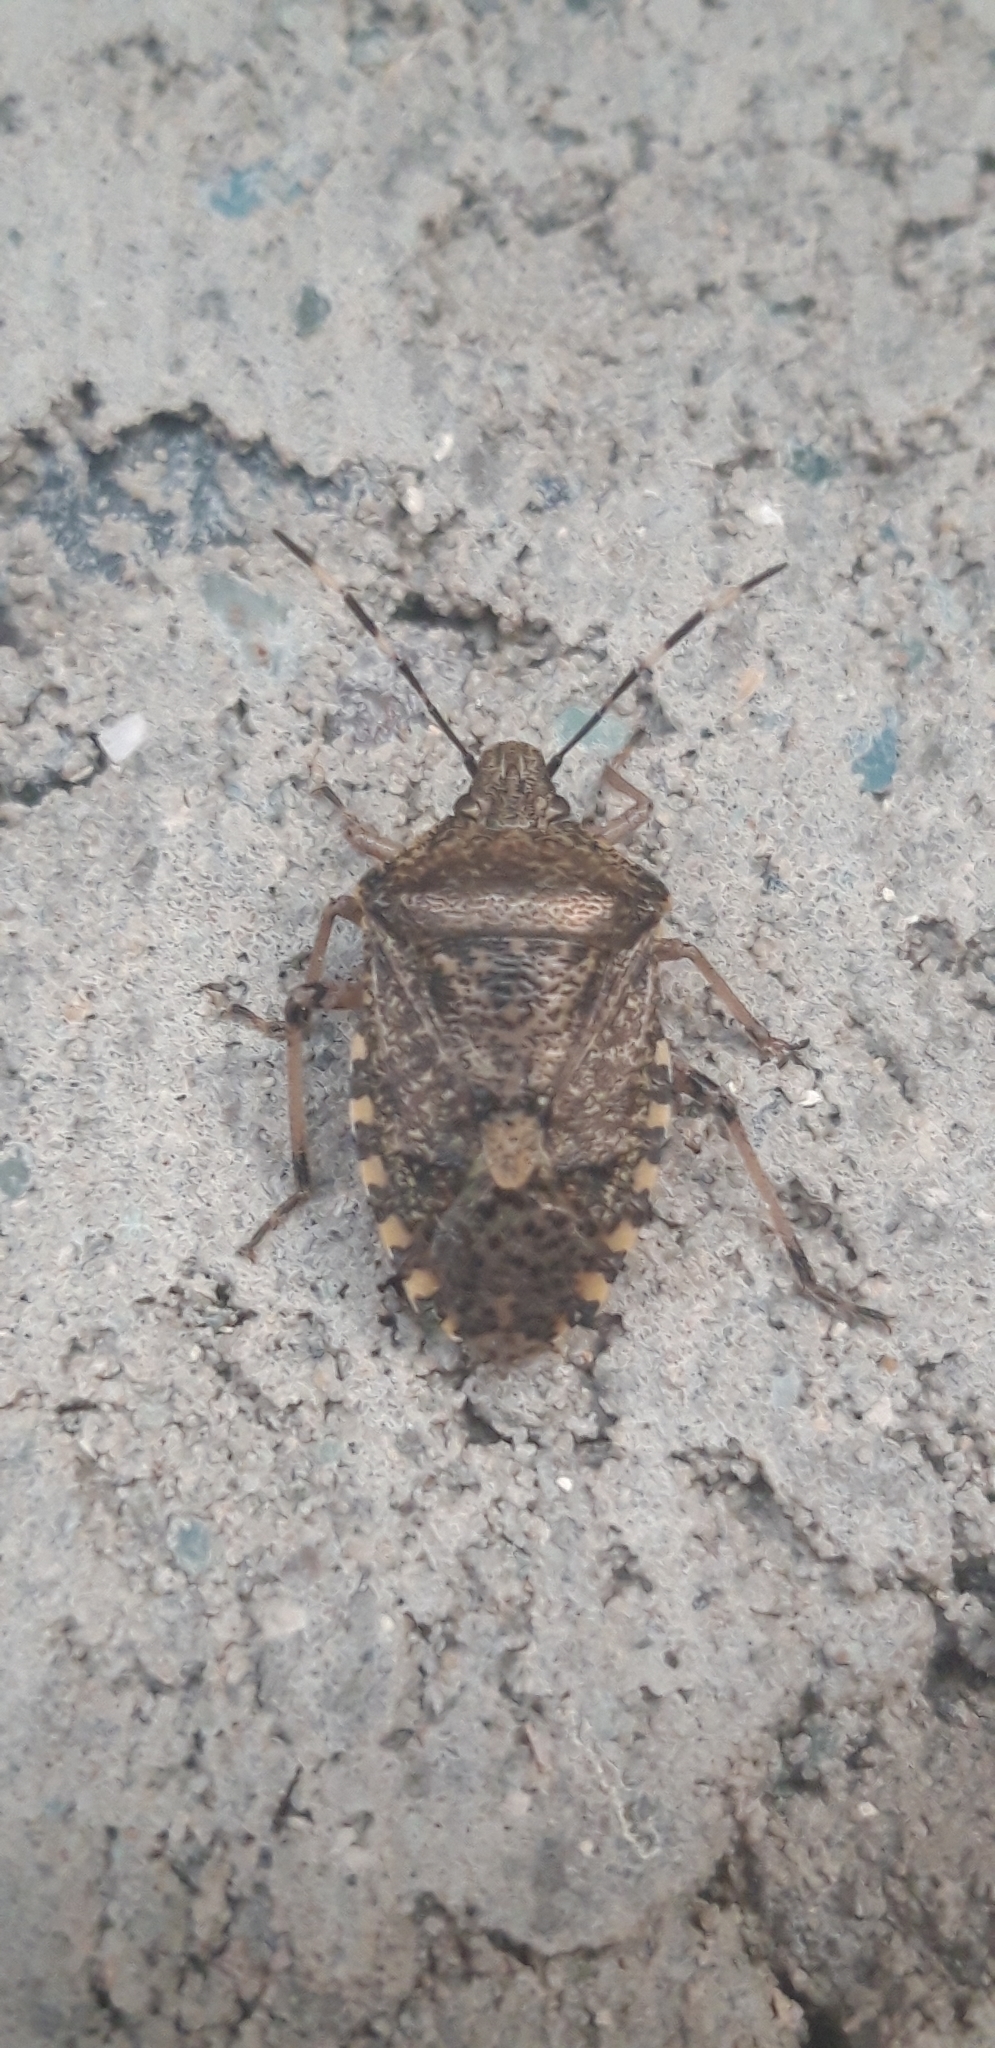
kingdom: Animalia
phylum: Arthropoda
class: Insecta
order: Hemiptera
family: Pentatomidae
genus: Rhaphigaster
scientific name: Rhaphigaster nebulosa
